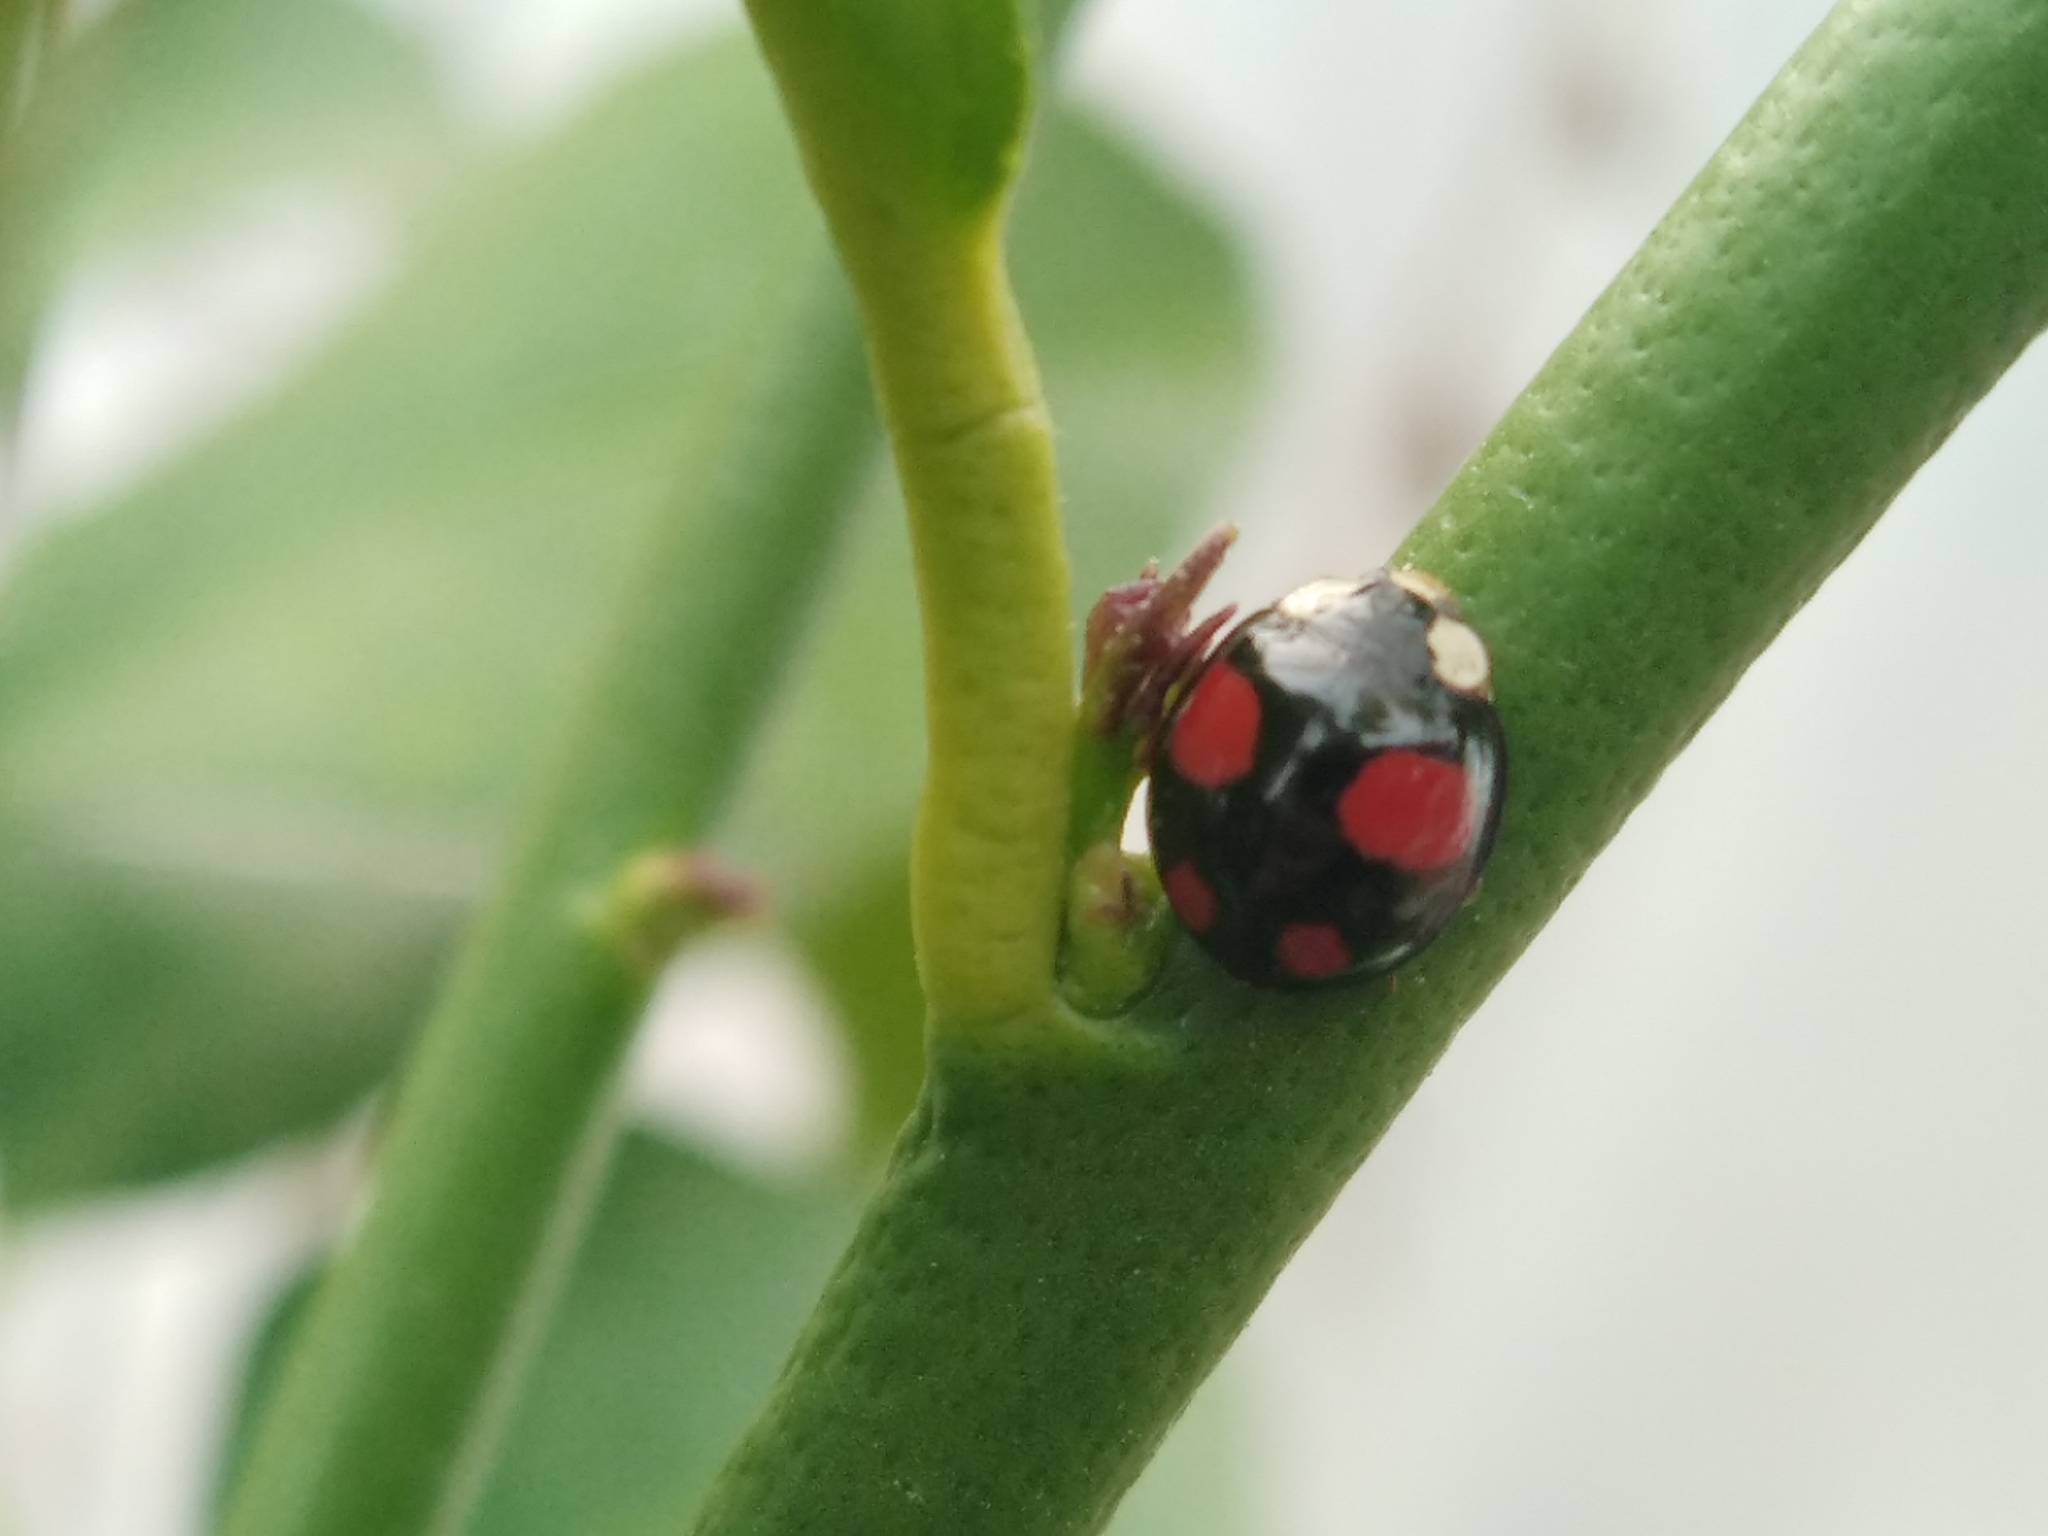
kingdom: Animalia
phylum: Arthropoda
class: Insecta
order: Coleoptera
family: Coccinellidae
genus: Harmonia
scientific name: Harmonia axyridis
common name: Harlequin ladybird
